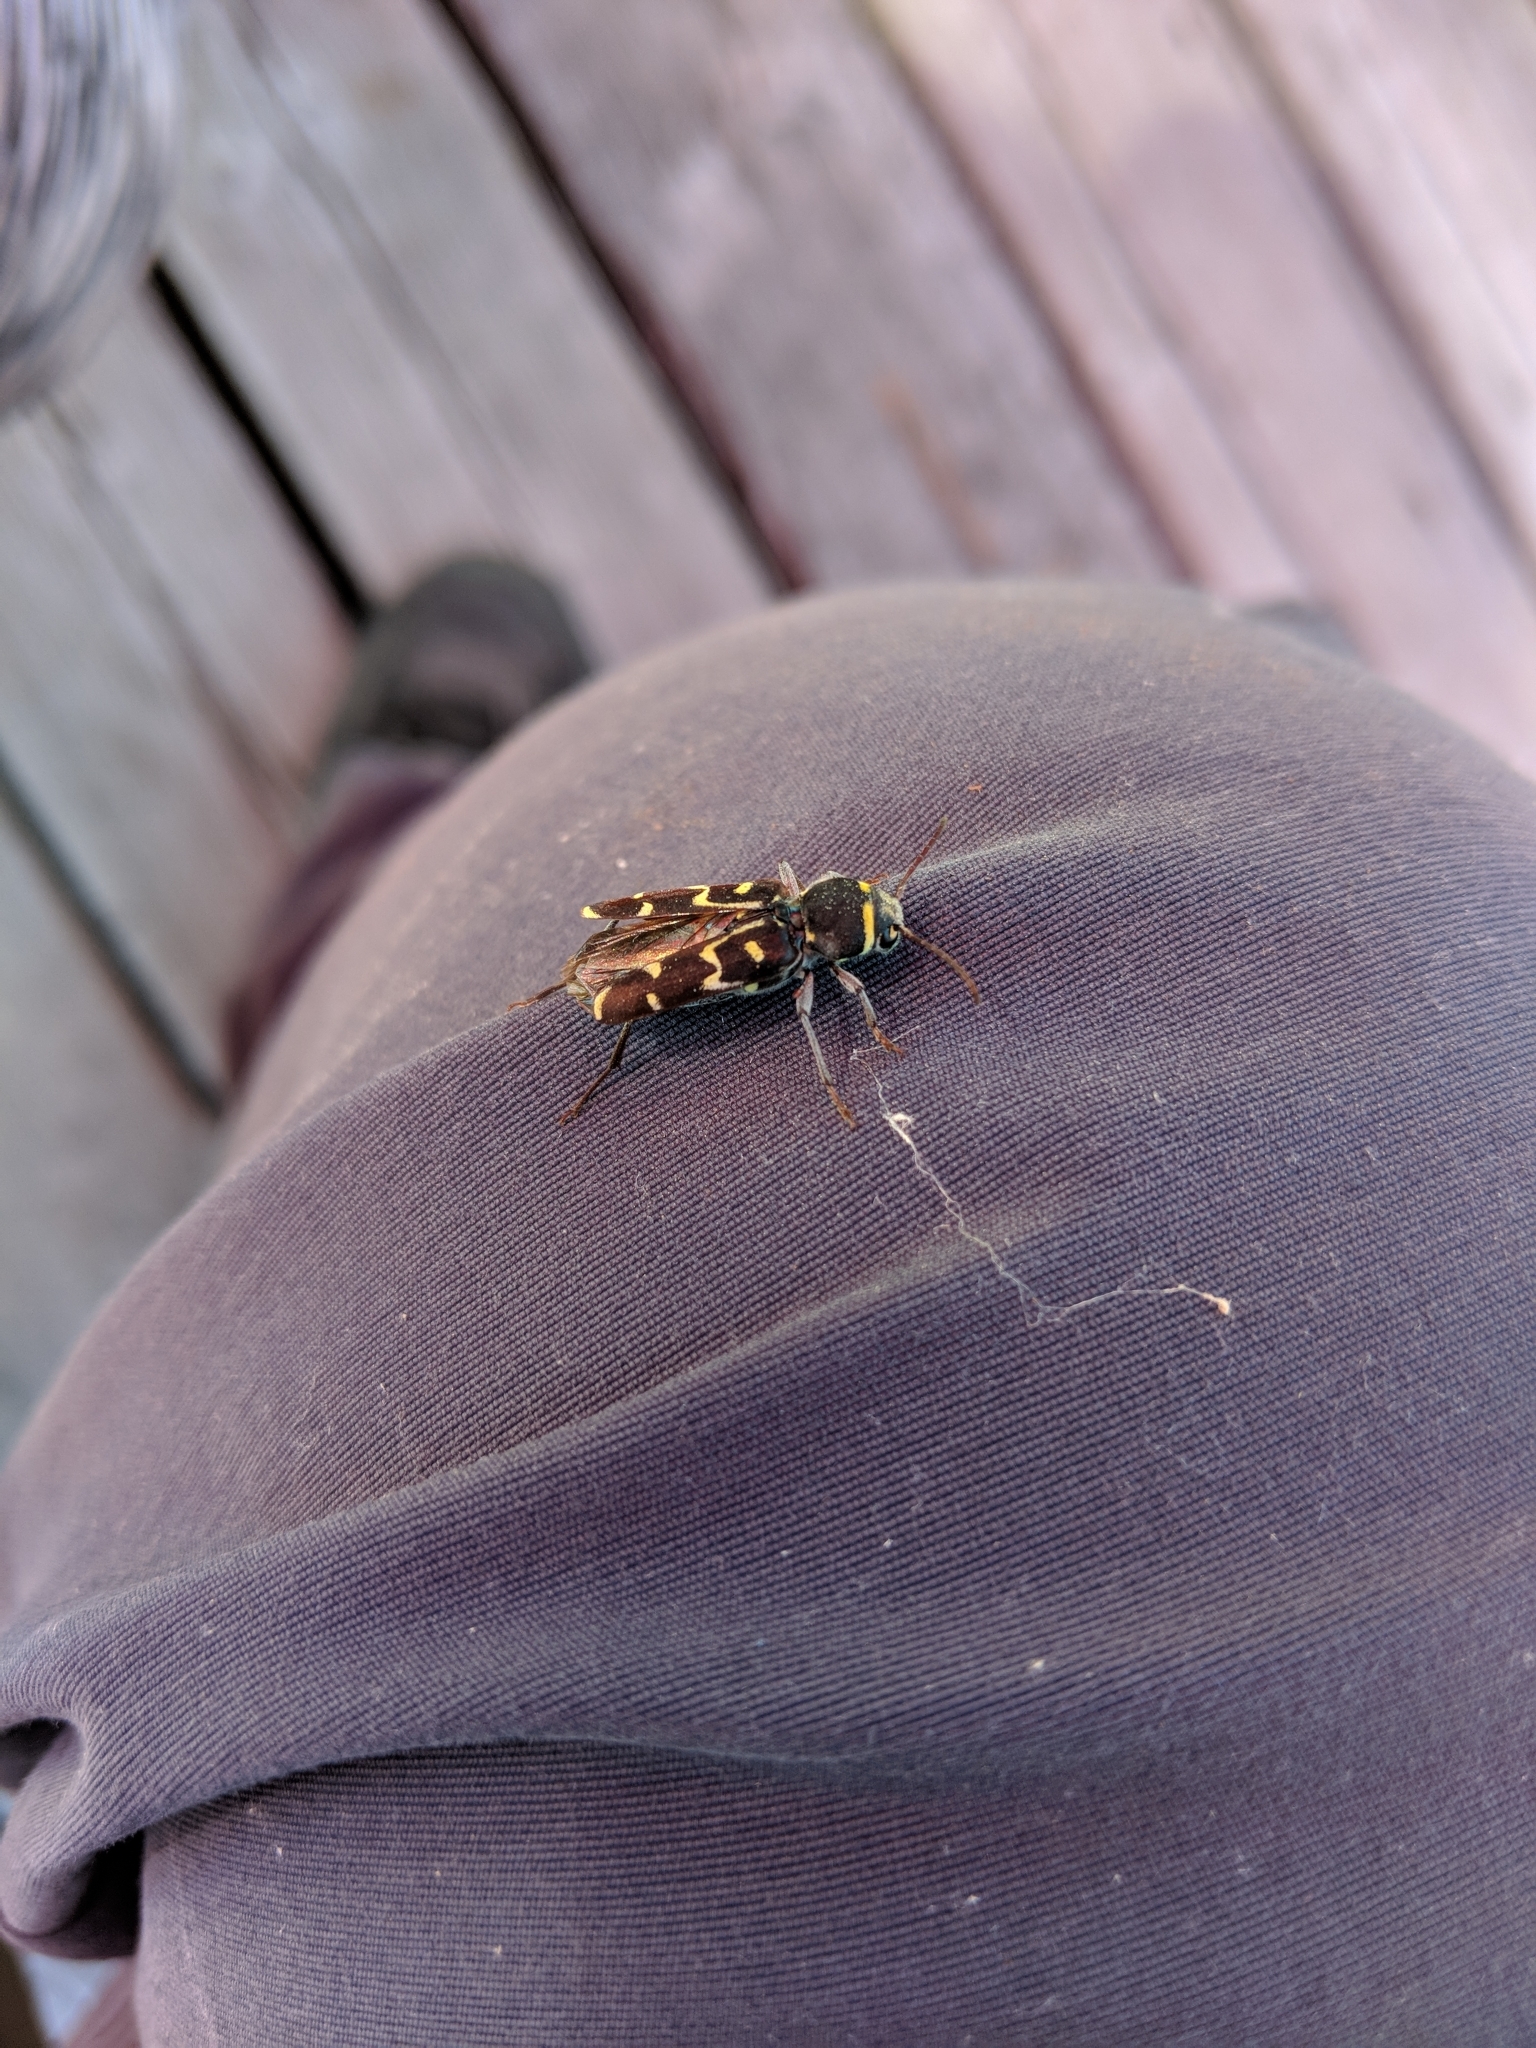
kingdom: Animalia
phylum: Arthropoda
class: Insecta
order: Coleoptera
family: Cerambycidae
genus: Xylotrechus
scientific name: Xylotrechus undulatus
